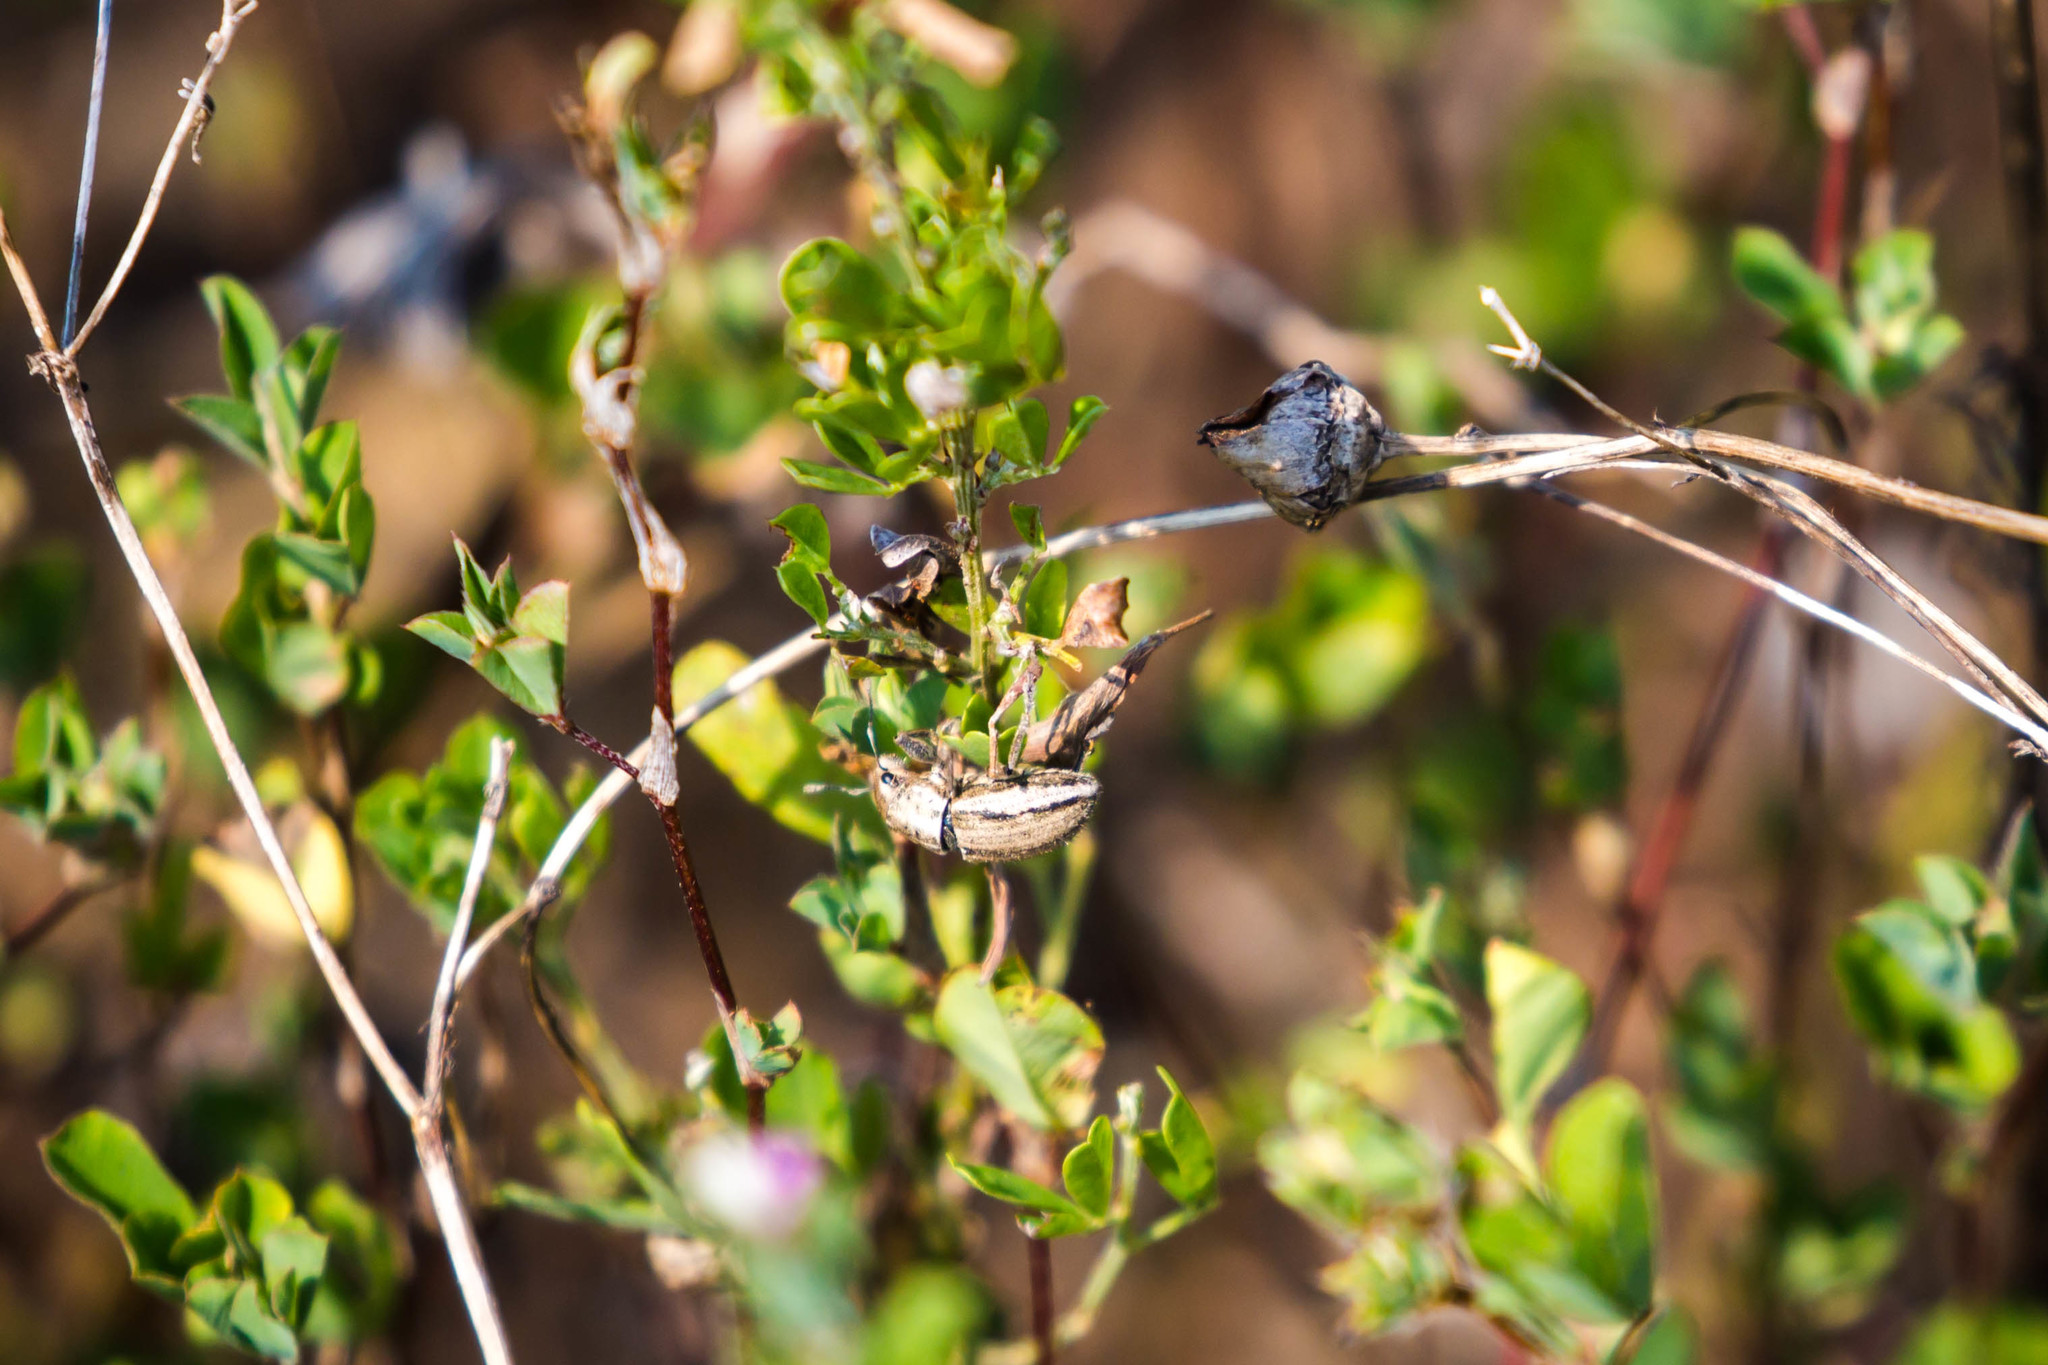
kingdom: Animalia
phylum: Arthropoda
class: Insecta
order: Coleoptera
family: Curculionidae
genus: Naupactus
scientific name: Naupactus peregrinus
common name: Whitefringed beetle
